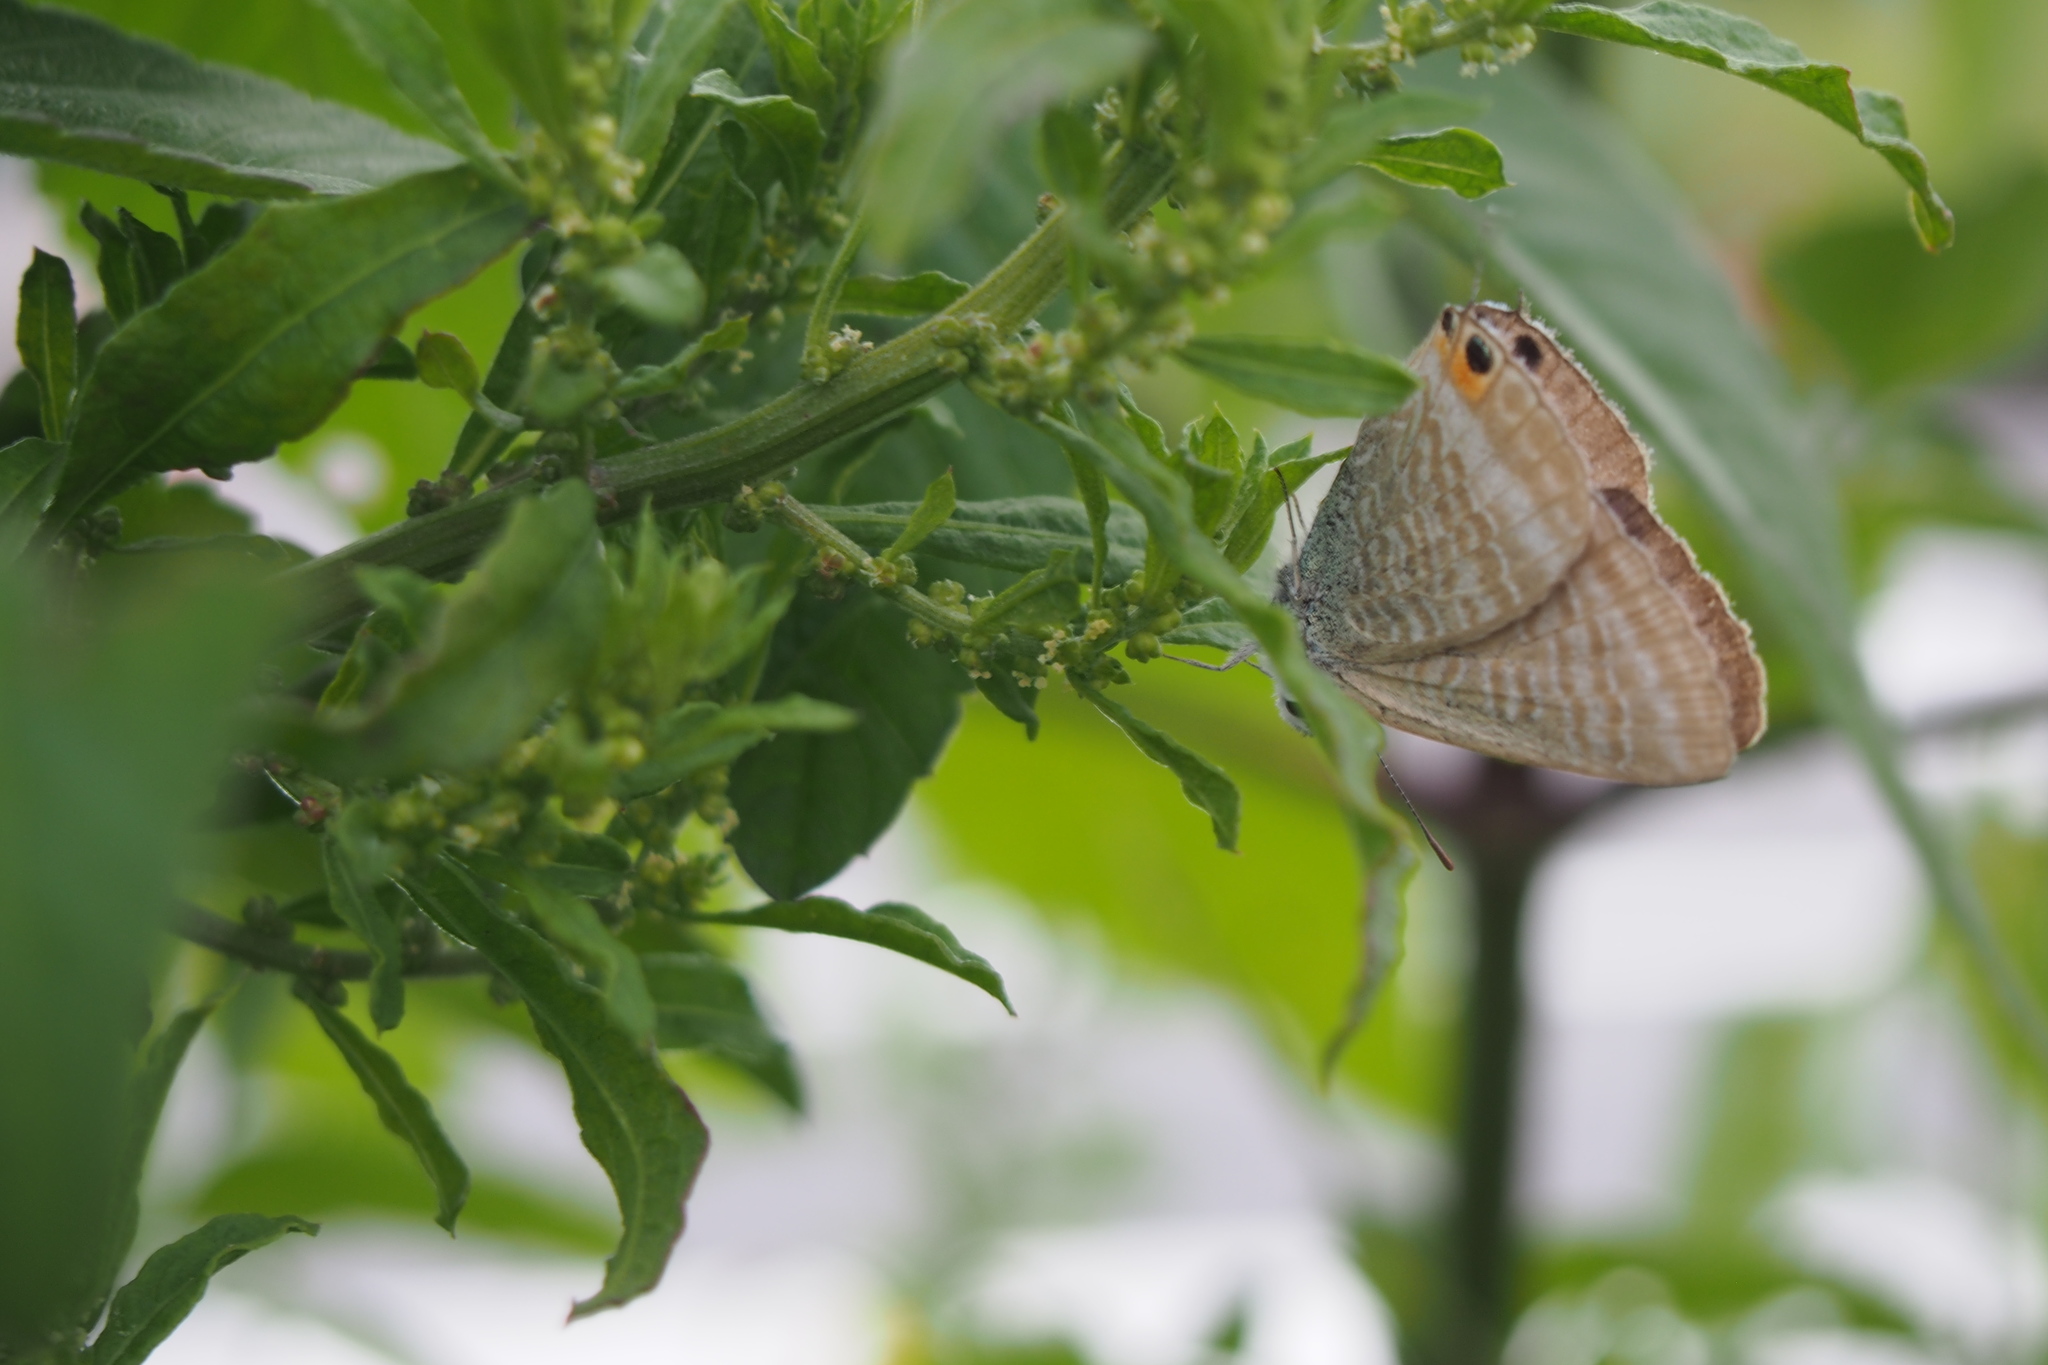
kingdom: Animalia
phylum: Arthropoda
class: Insecta
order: Lepidoptera
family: Lycaenidae
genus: Lampides
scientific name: Lampides boeticus
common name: Long-tailed blue
